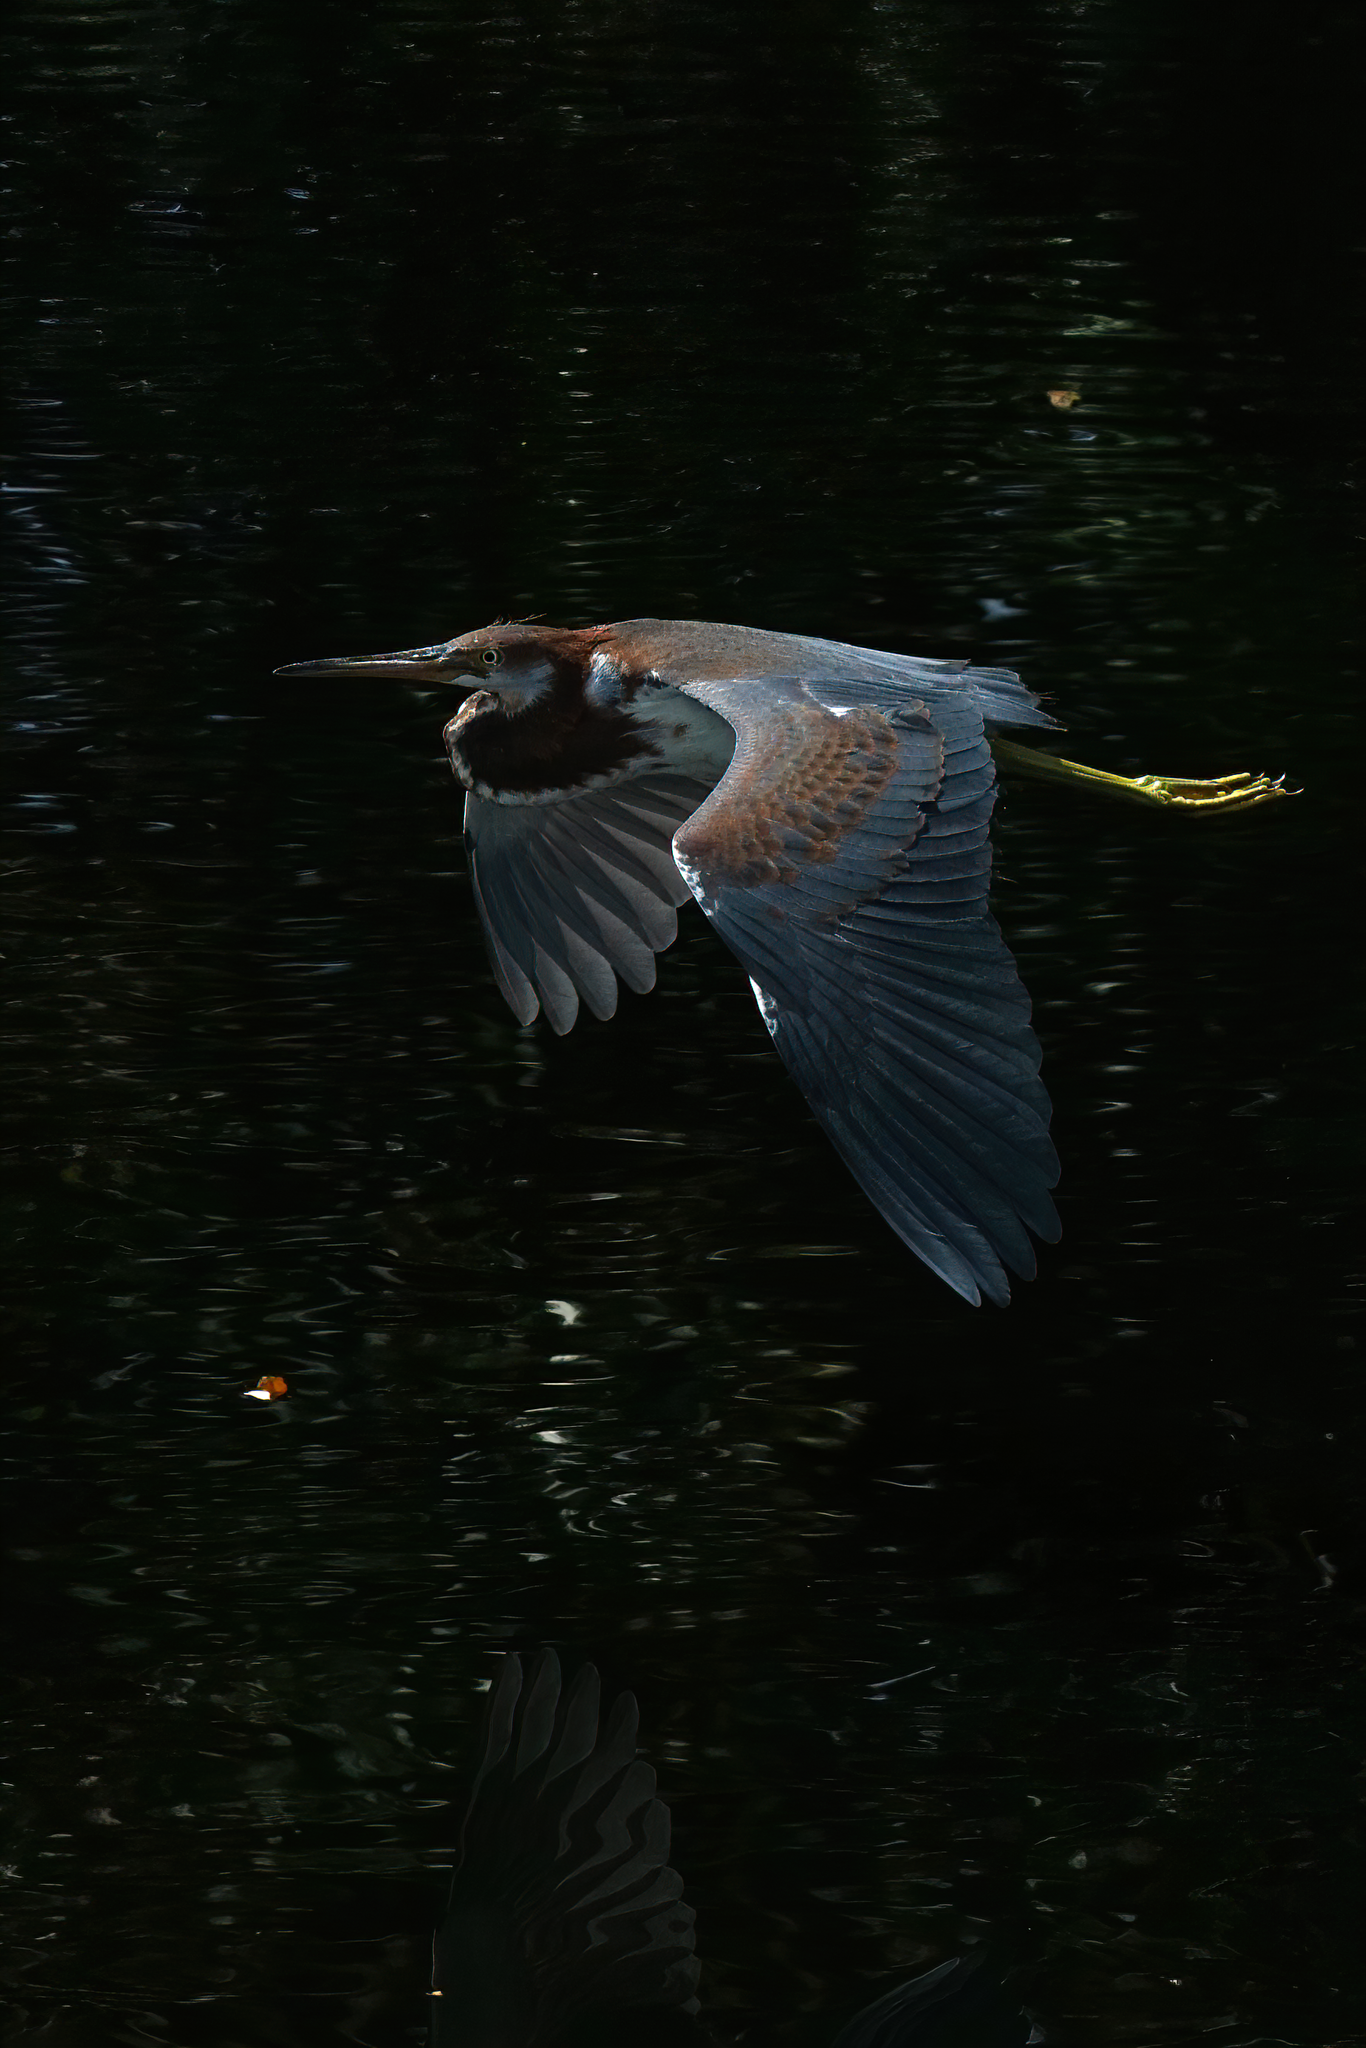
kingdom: Animalia
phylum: Chordata
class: Aves
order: Pelecaniformes
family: Ardeidae
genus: Egretta
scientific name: Egretta tricolor
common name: Tricolored heron
